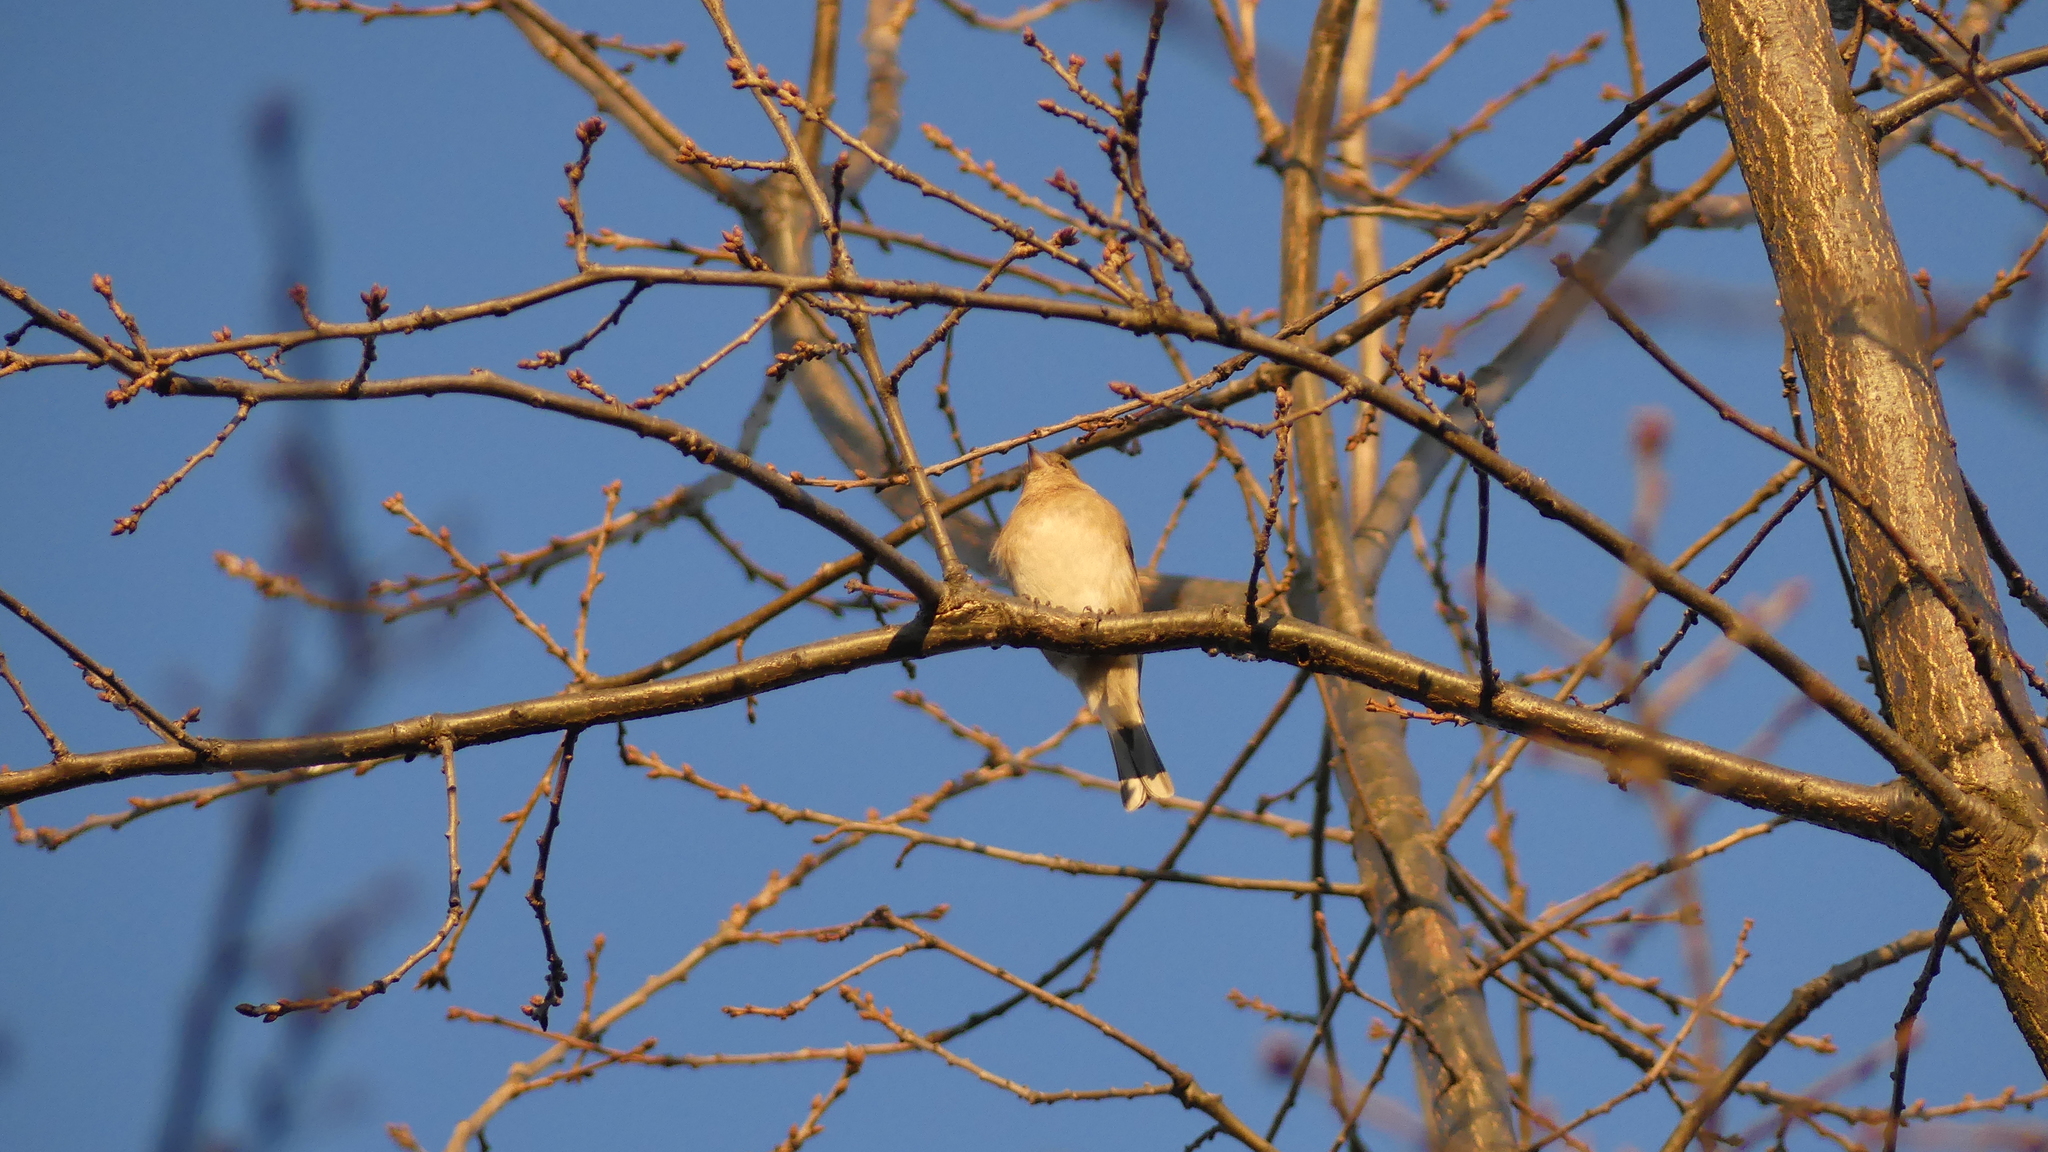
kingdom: Animalia
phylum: Chordata
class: Aves
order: Passeriformes
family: Fringillidae
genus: Fringilla
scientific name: Fringilla coelebs
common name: Common chaffinch
